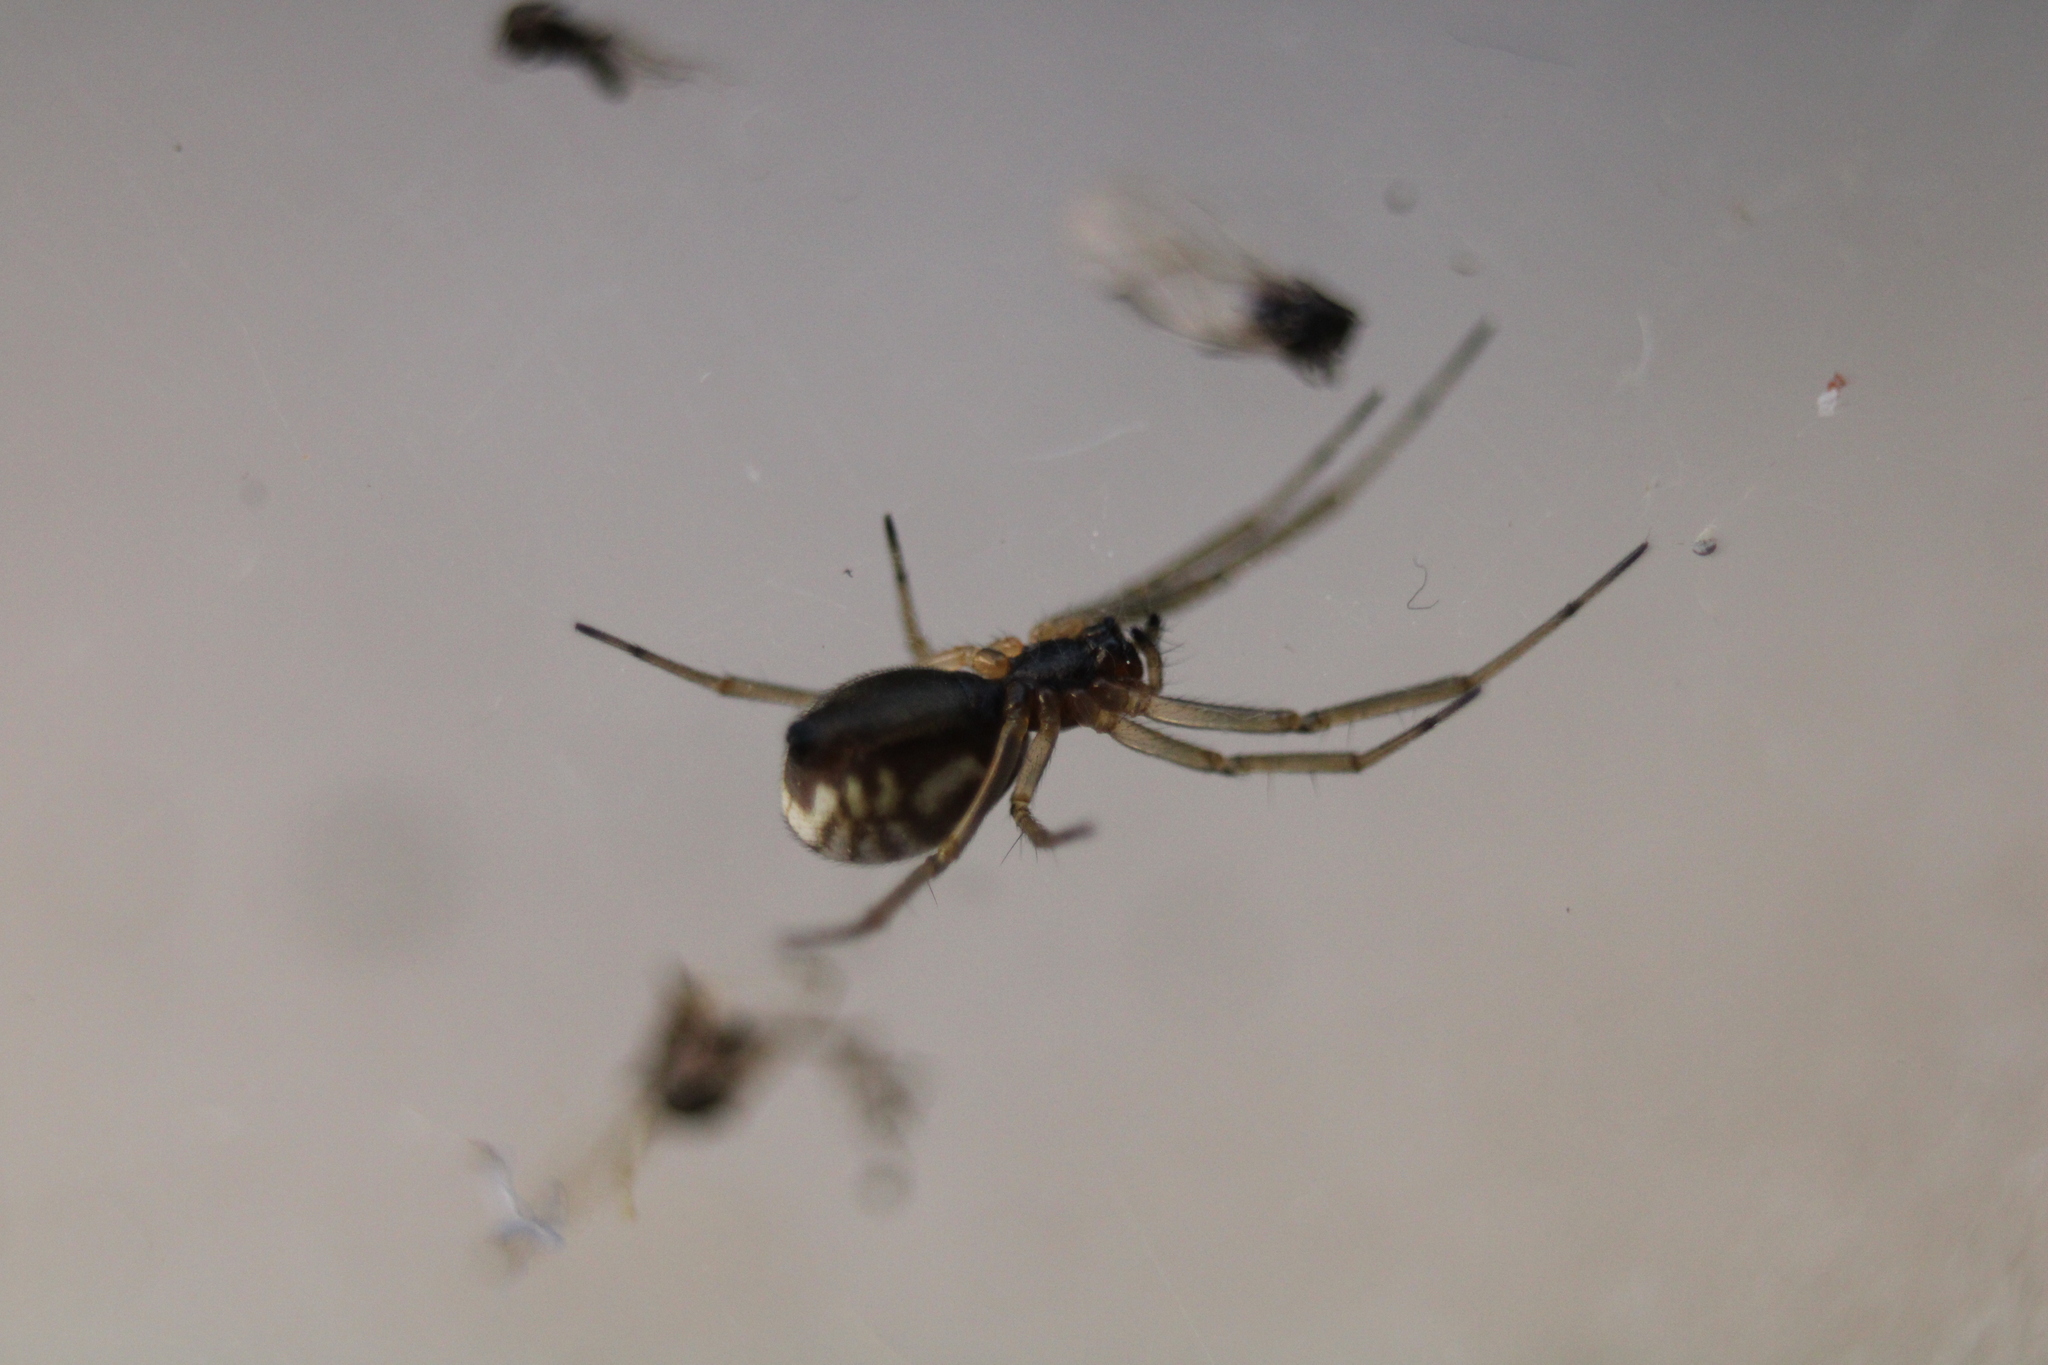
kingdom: Animalia
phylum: Arthropoda
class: Arachnida
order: Araneae
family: Linyphiidae
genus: Frontinella
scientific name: Frontinella pyramitela
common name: Bowl-and-doily spider
